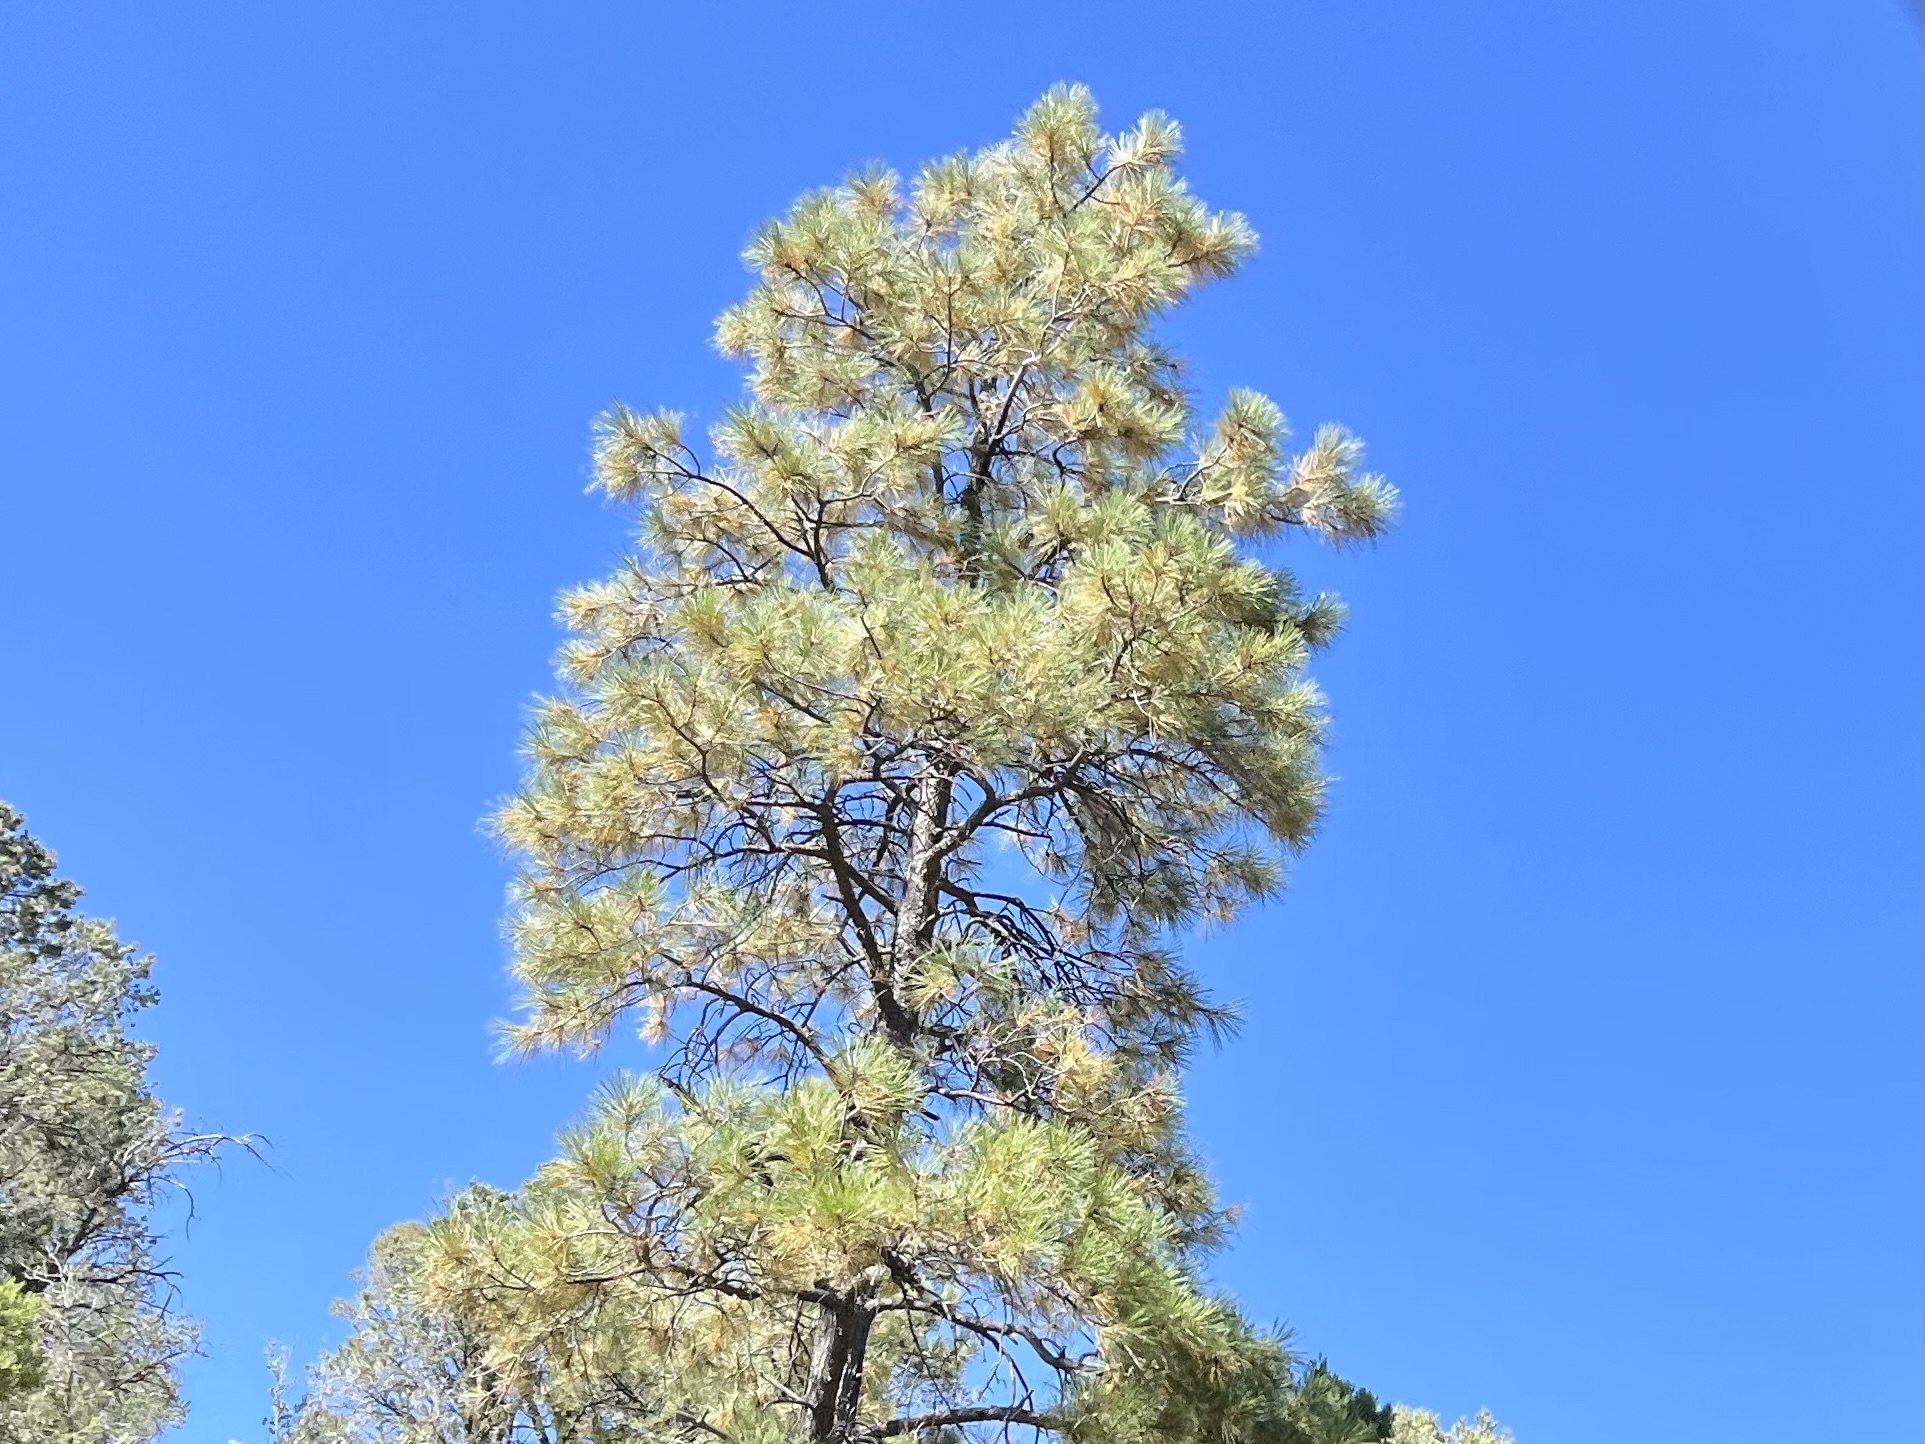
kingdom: Plantae
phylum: Tracheophyta
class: Pinopsida
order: Pinales
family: Pinaceae
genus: Pinus
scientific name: Pinus ponderosa
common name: Western yellow-pine
